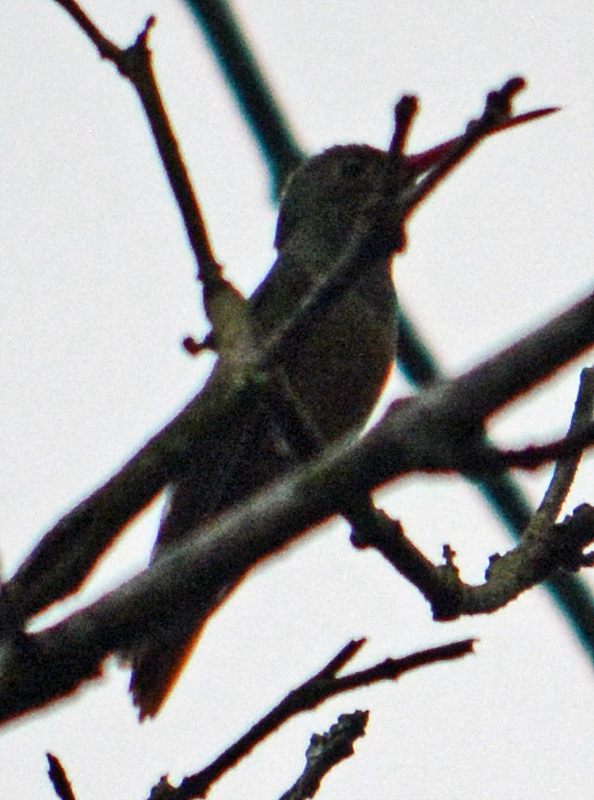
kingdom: Animalia
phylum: Chordata
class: Aves
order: Apodiformes
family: Trochilidae
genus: Amazilia
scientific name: Amazilia yucatanensis
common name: Buff-bellied hummingbird
